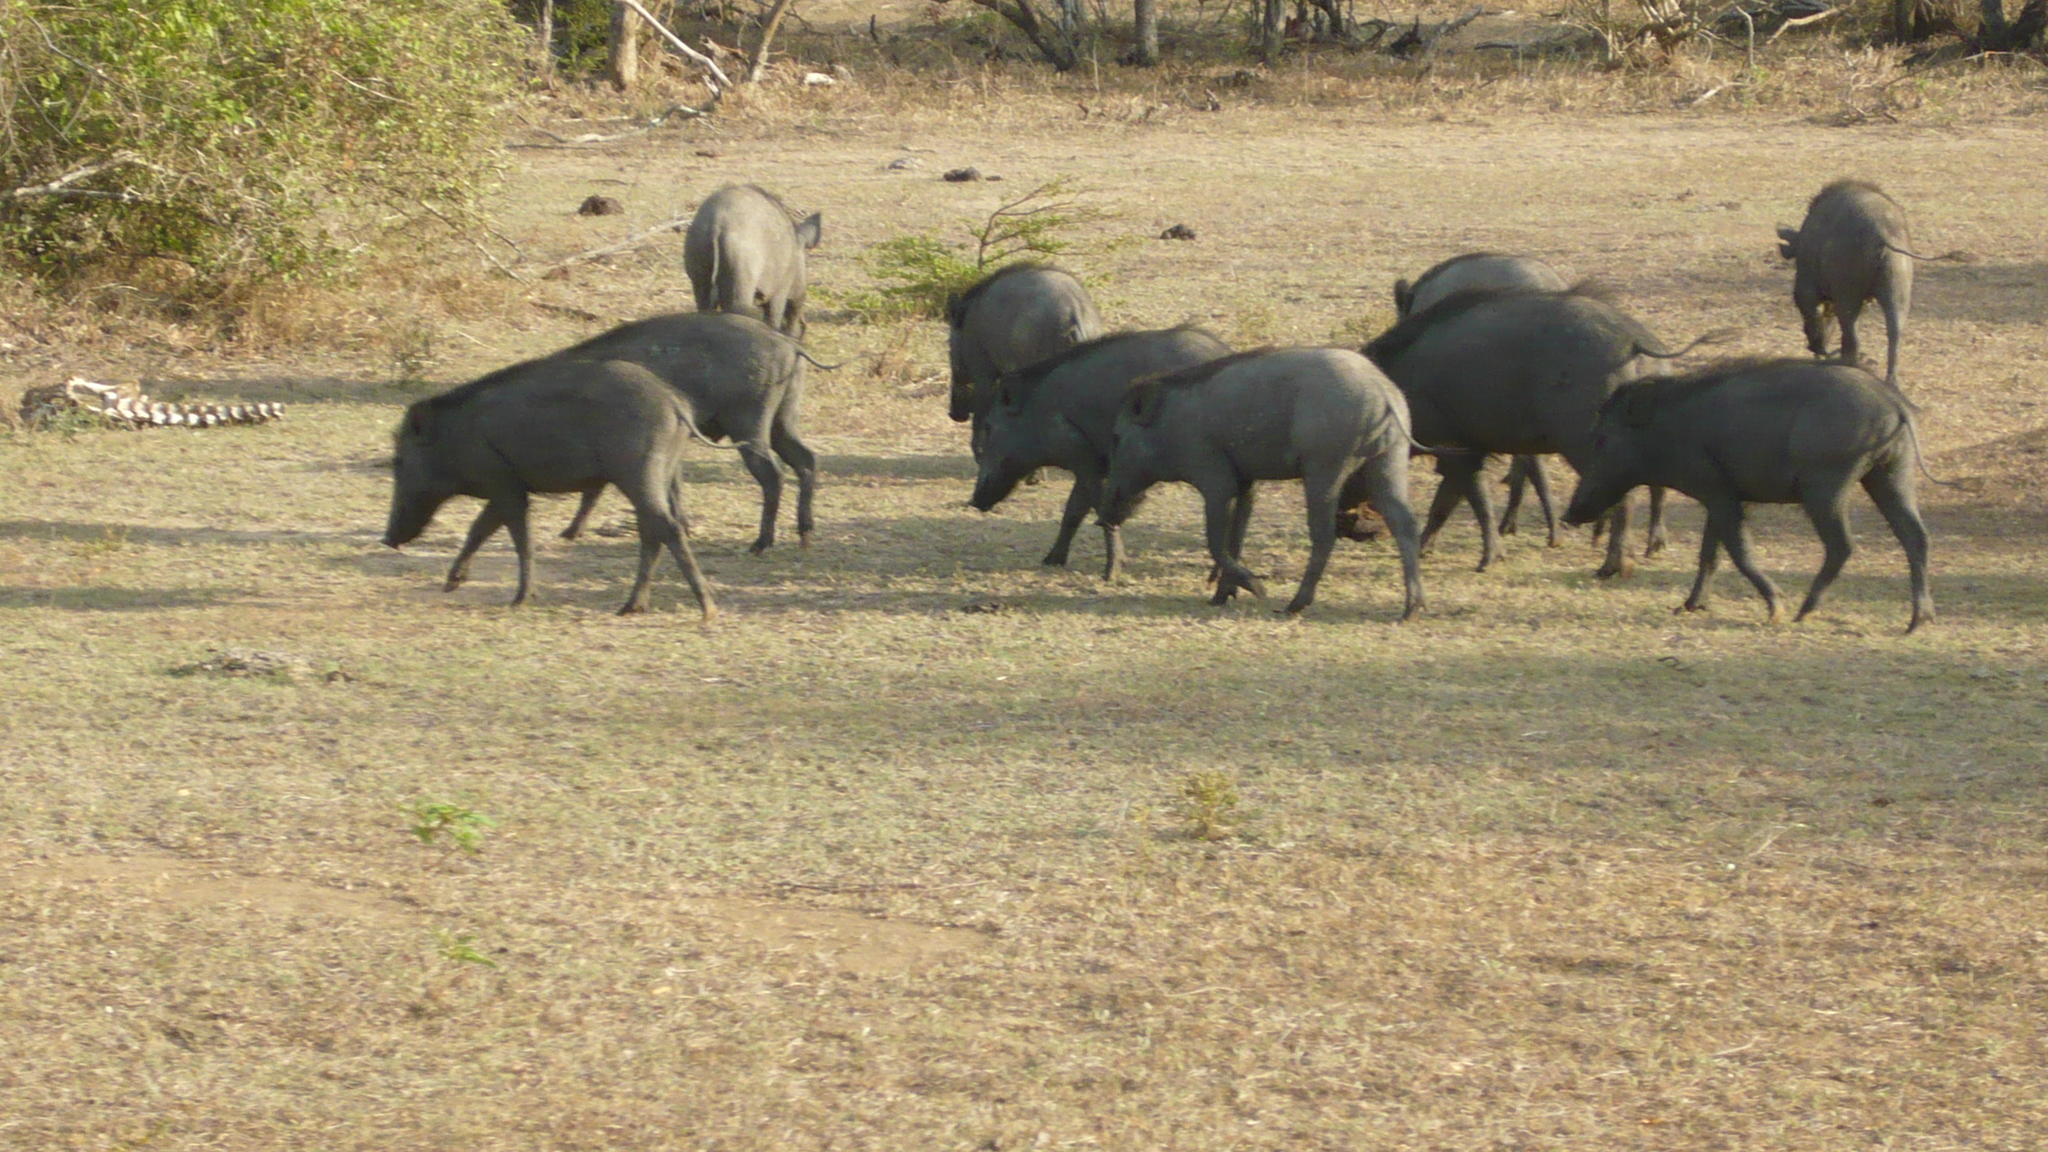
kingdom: Animalia
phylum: Chordata
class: Mammalia
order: Artiodactyla
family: Suidae
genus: Sus
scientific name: Sus scrofa
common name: Wild boar
